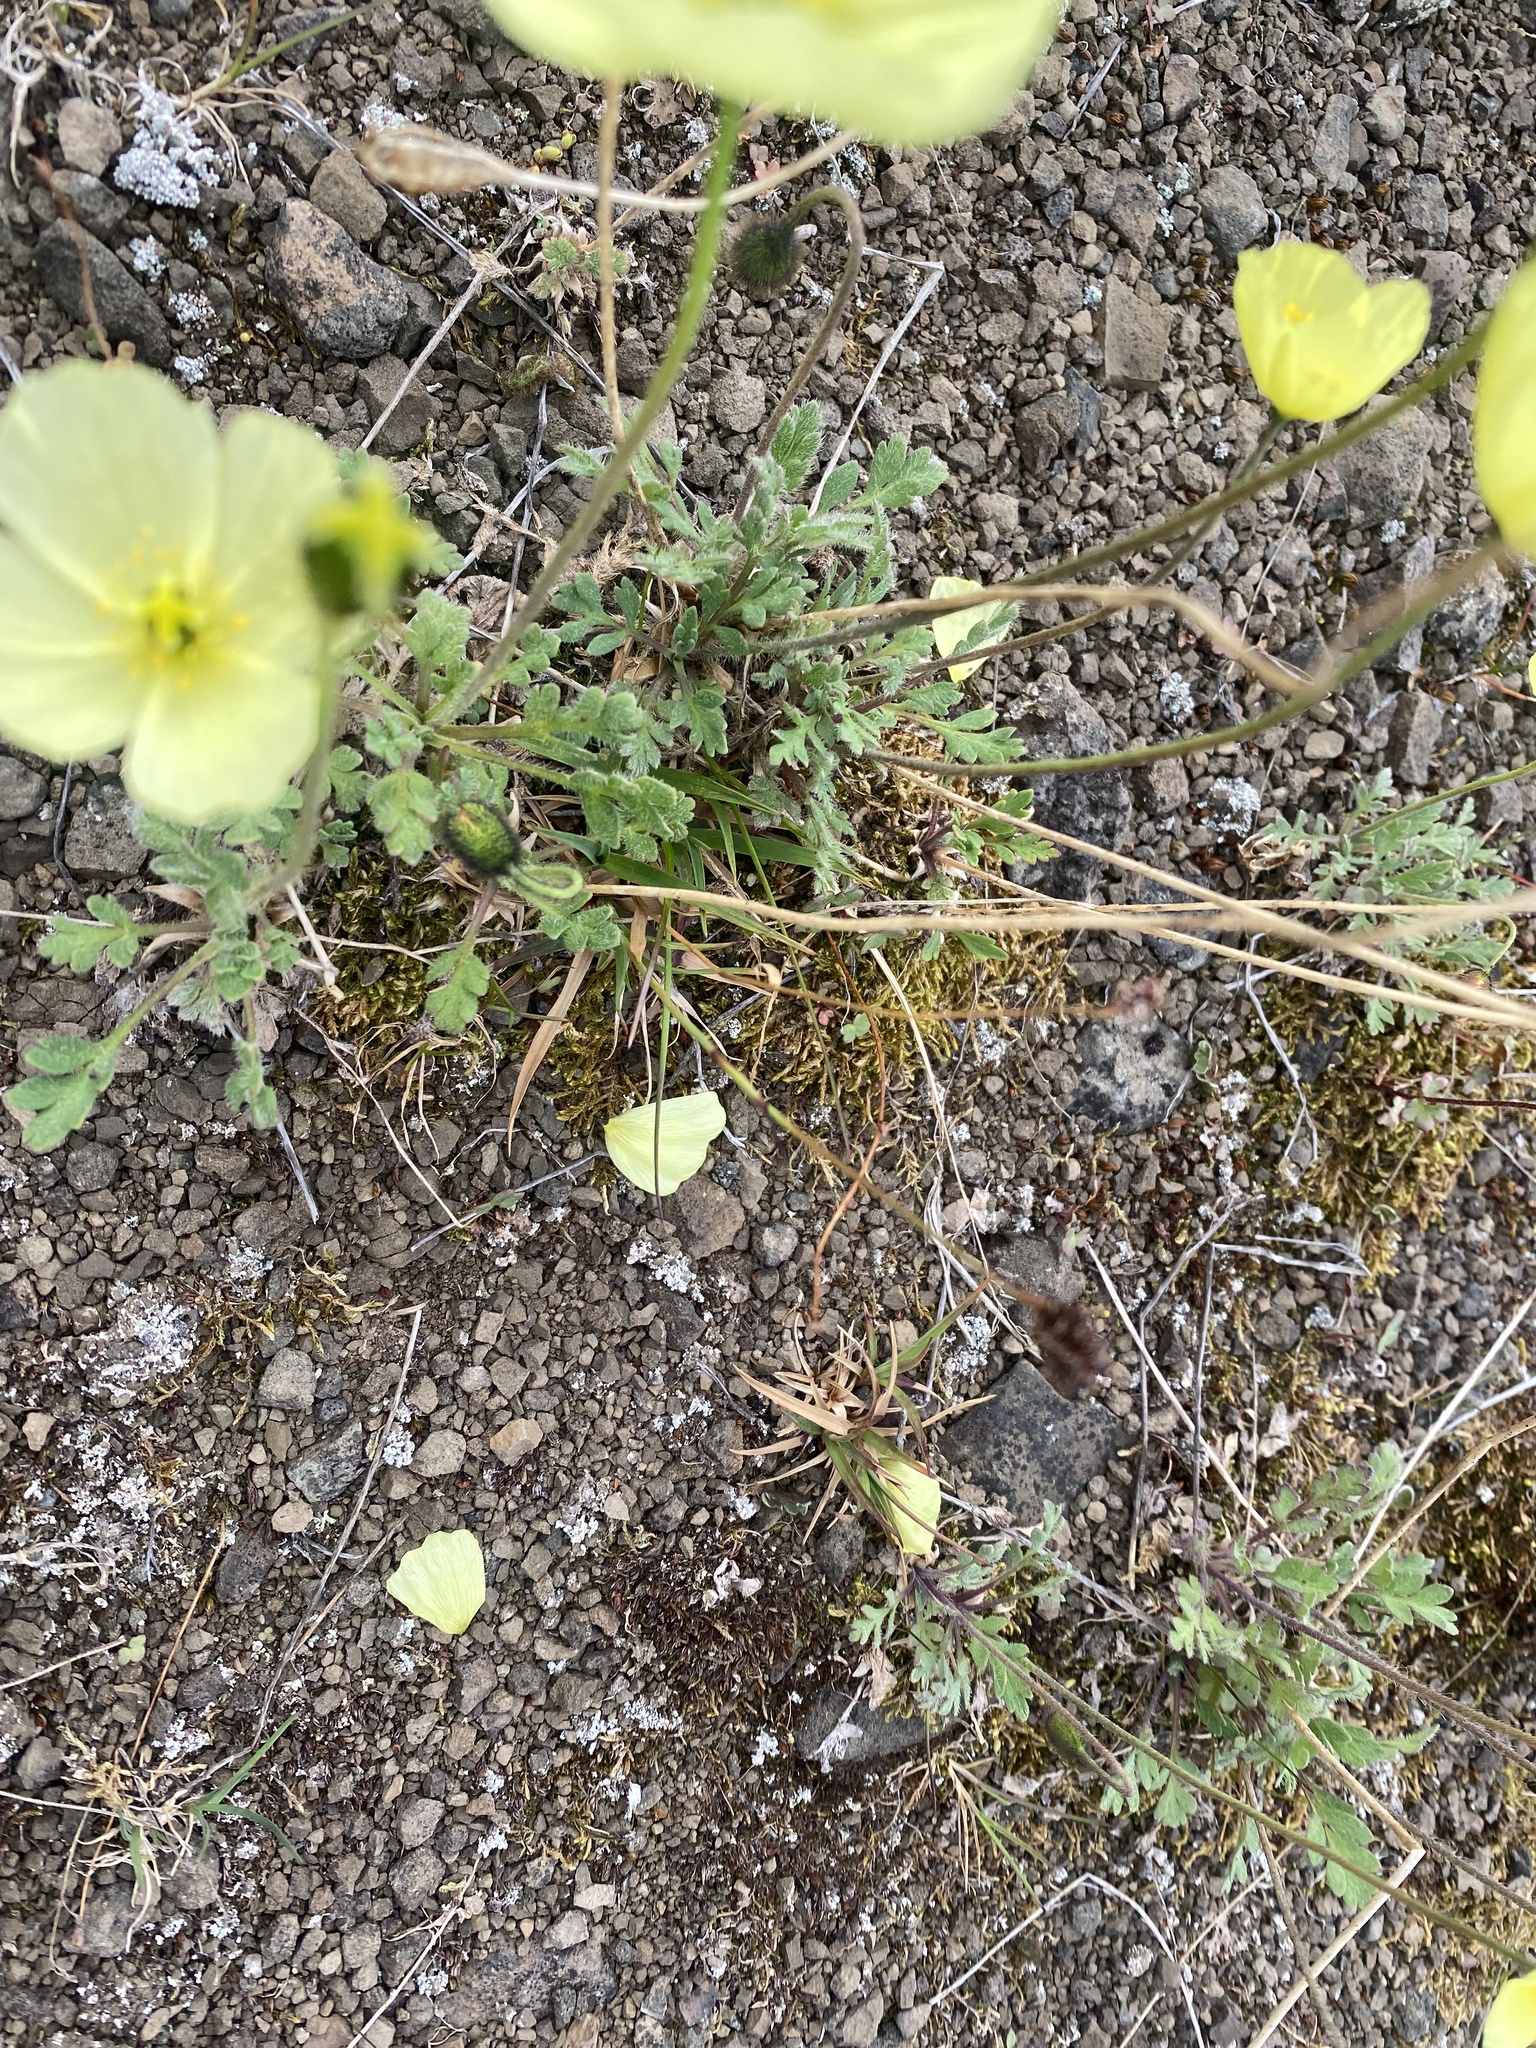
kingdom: Plantae
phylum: Tracheophyta
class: Magnoliopsida
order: Ranunculales
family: Papaveraceae
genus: Papaver
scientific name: Papaver pulvinatum
